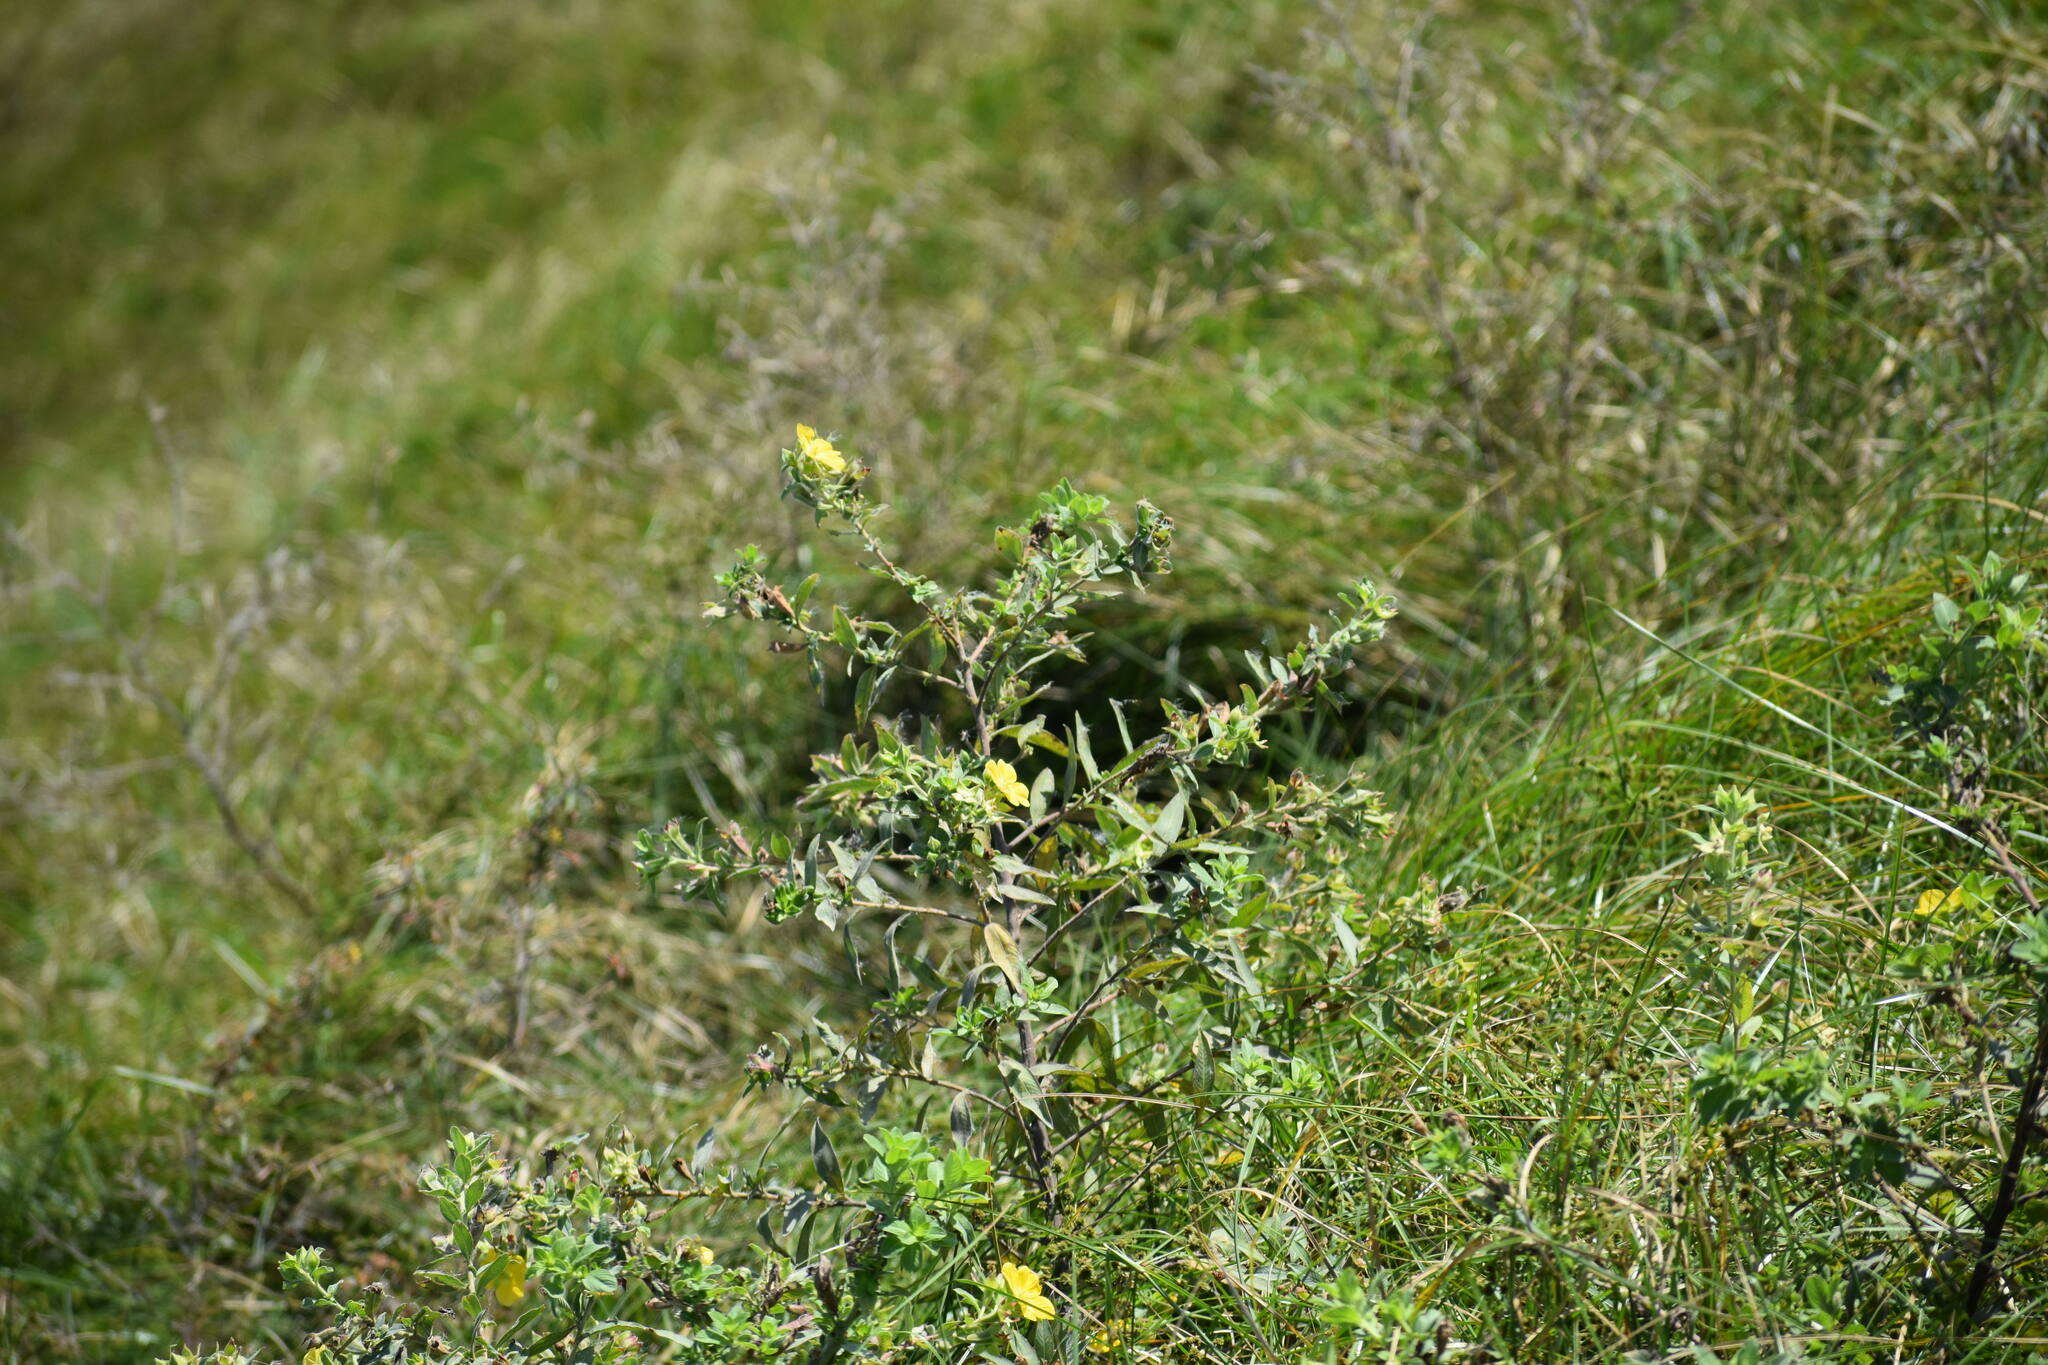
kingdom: Plantae
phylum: Tracheophyta
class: Magnoliopsida
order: Myrtales
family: Onagraceae
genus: Ludwigia
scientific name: Ludwigia peruviana
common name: Peruvian primrose-willow
